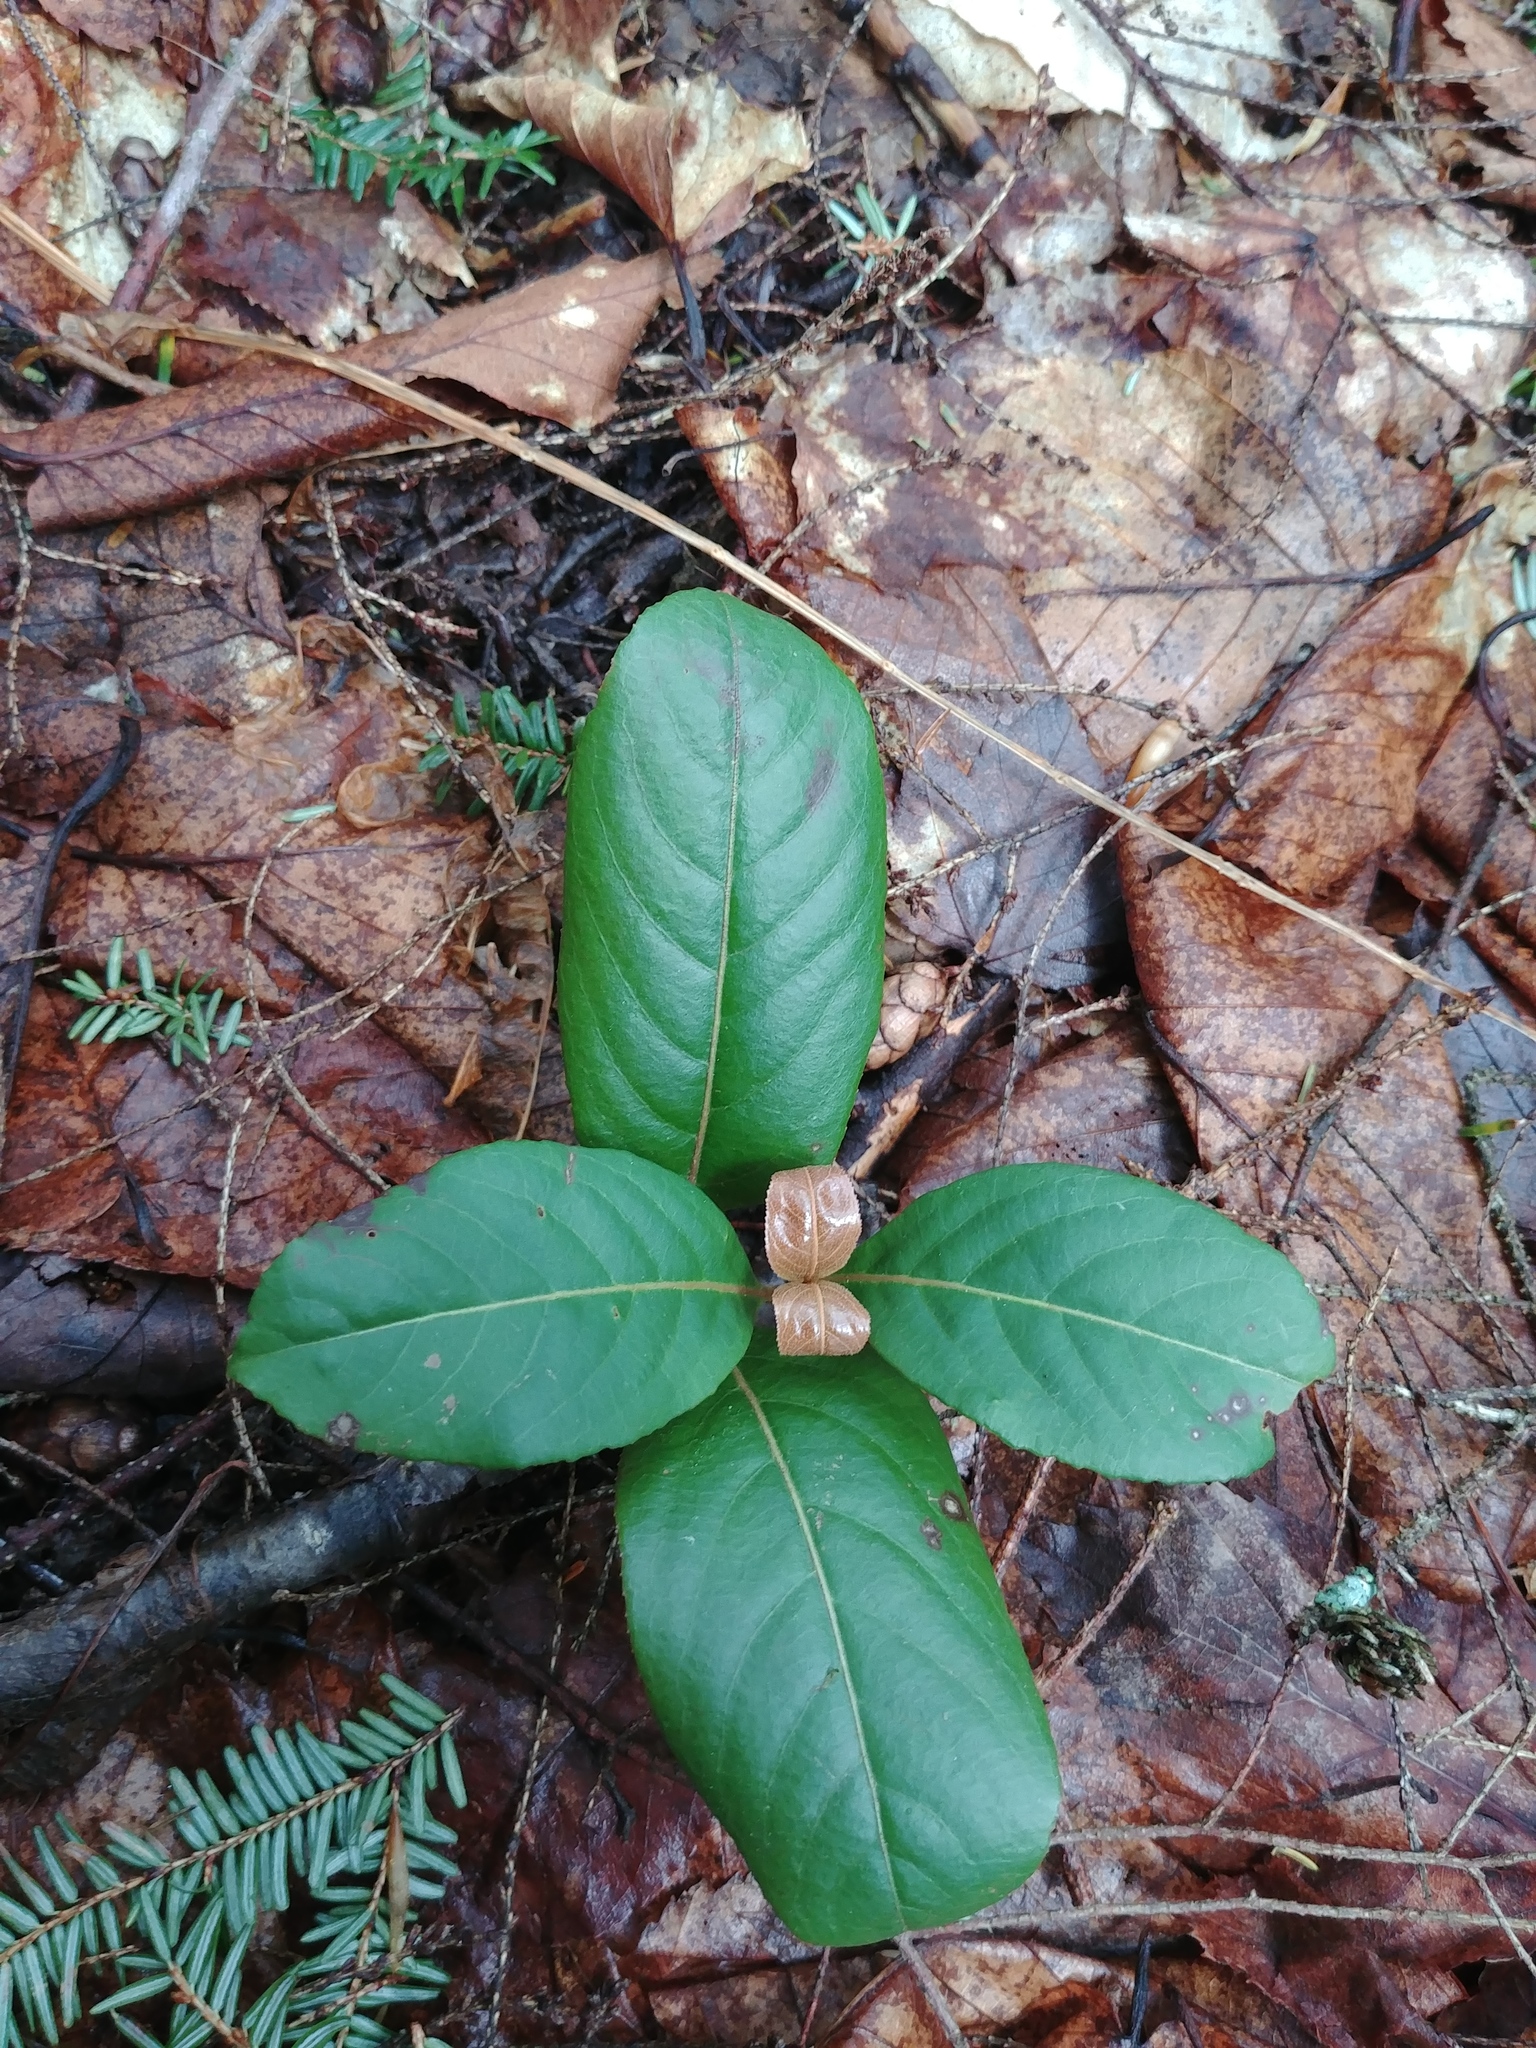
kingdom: Plantae
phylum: Tracheophyta
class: Magnoliopsida
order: Dipsacales
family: Viburnaceae
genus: Viburnum
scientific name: Viburnum cassinoides
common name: Swamp haw
